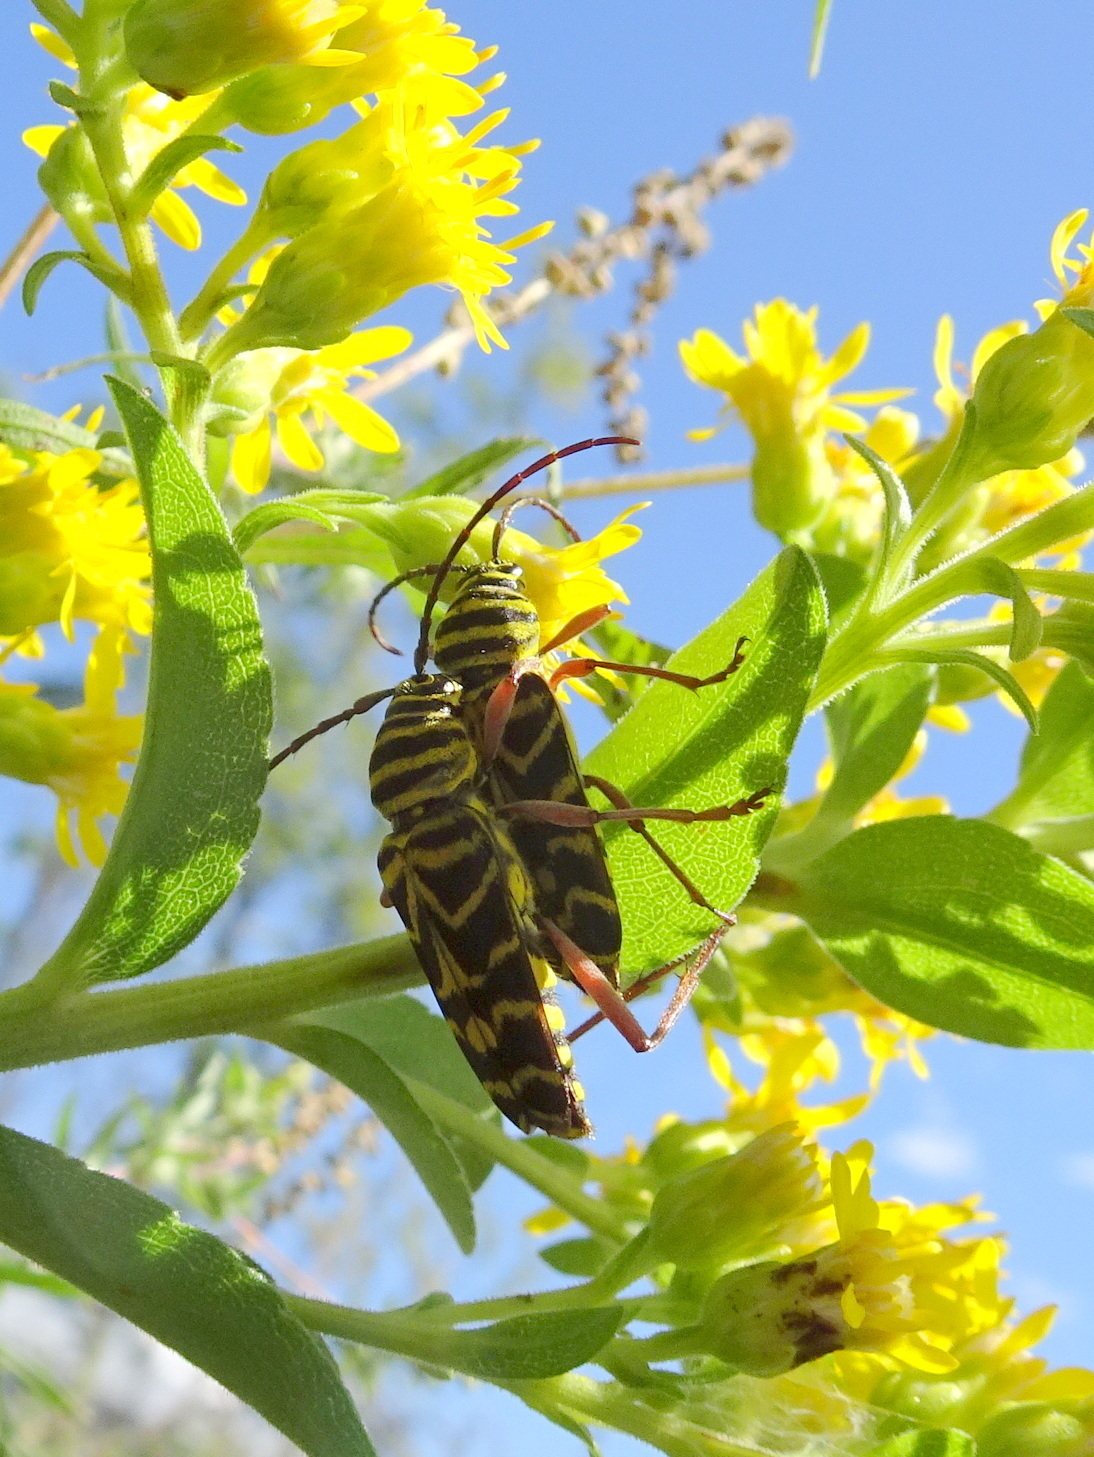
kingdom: Animalia
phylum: Arthropoda
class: Insecta
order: Coleoptera
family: Cerambycidae
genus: Megacyllene
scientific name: Megacyllene robiniae
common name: Locust borer
